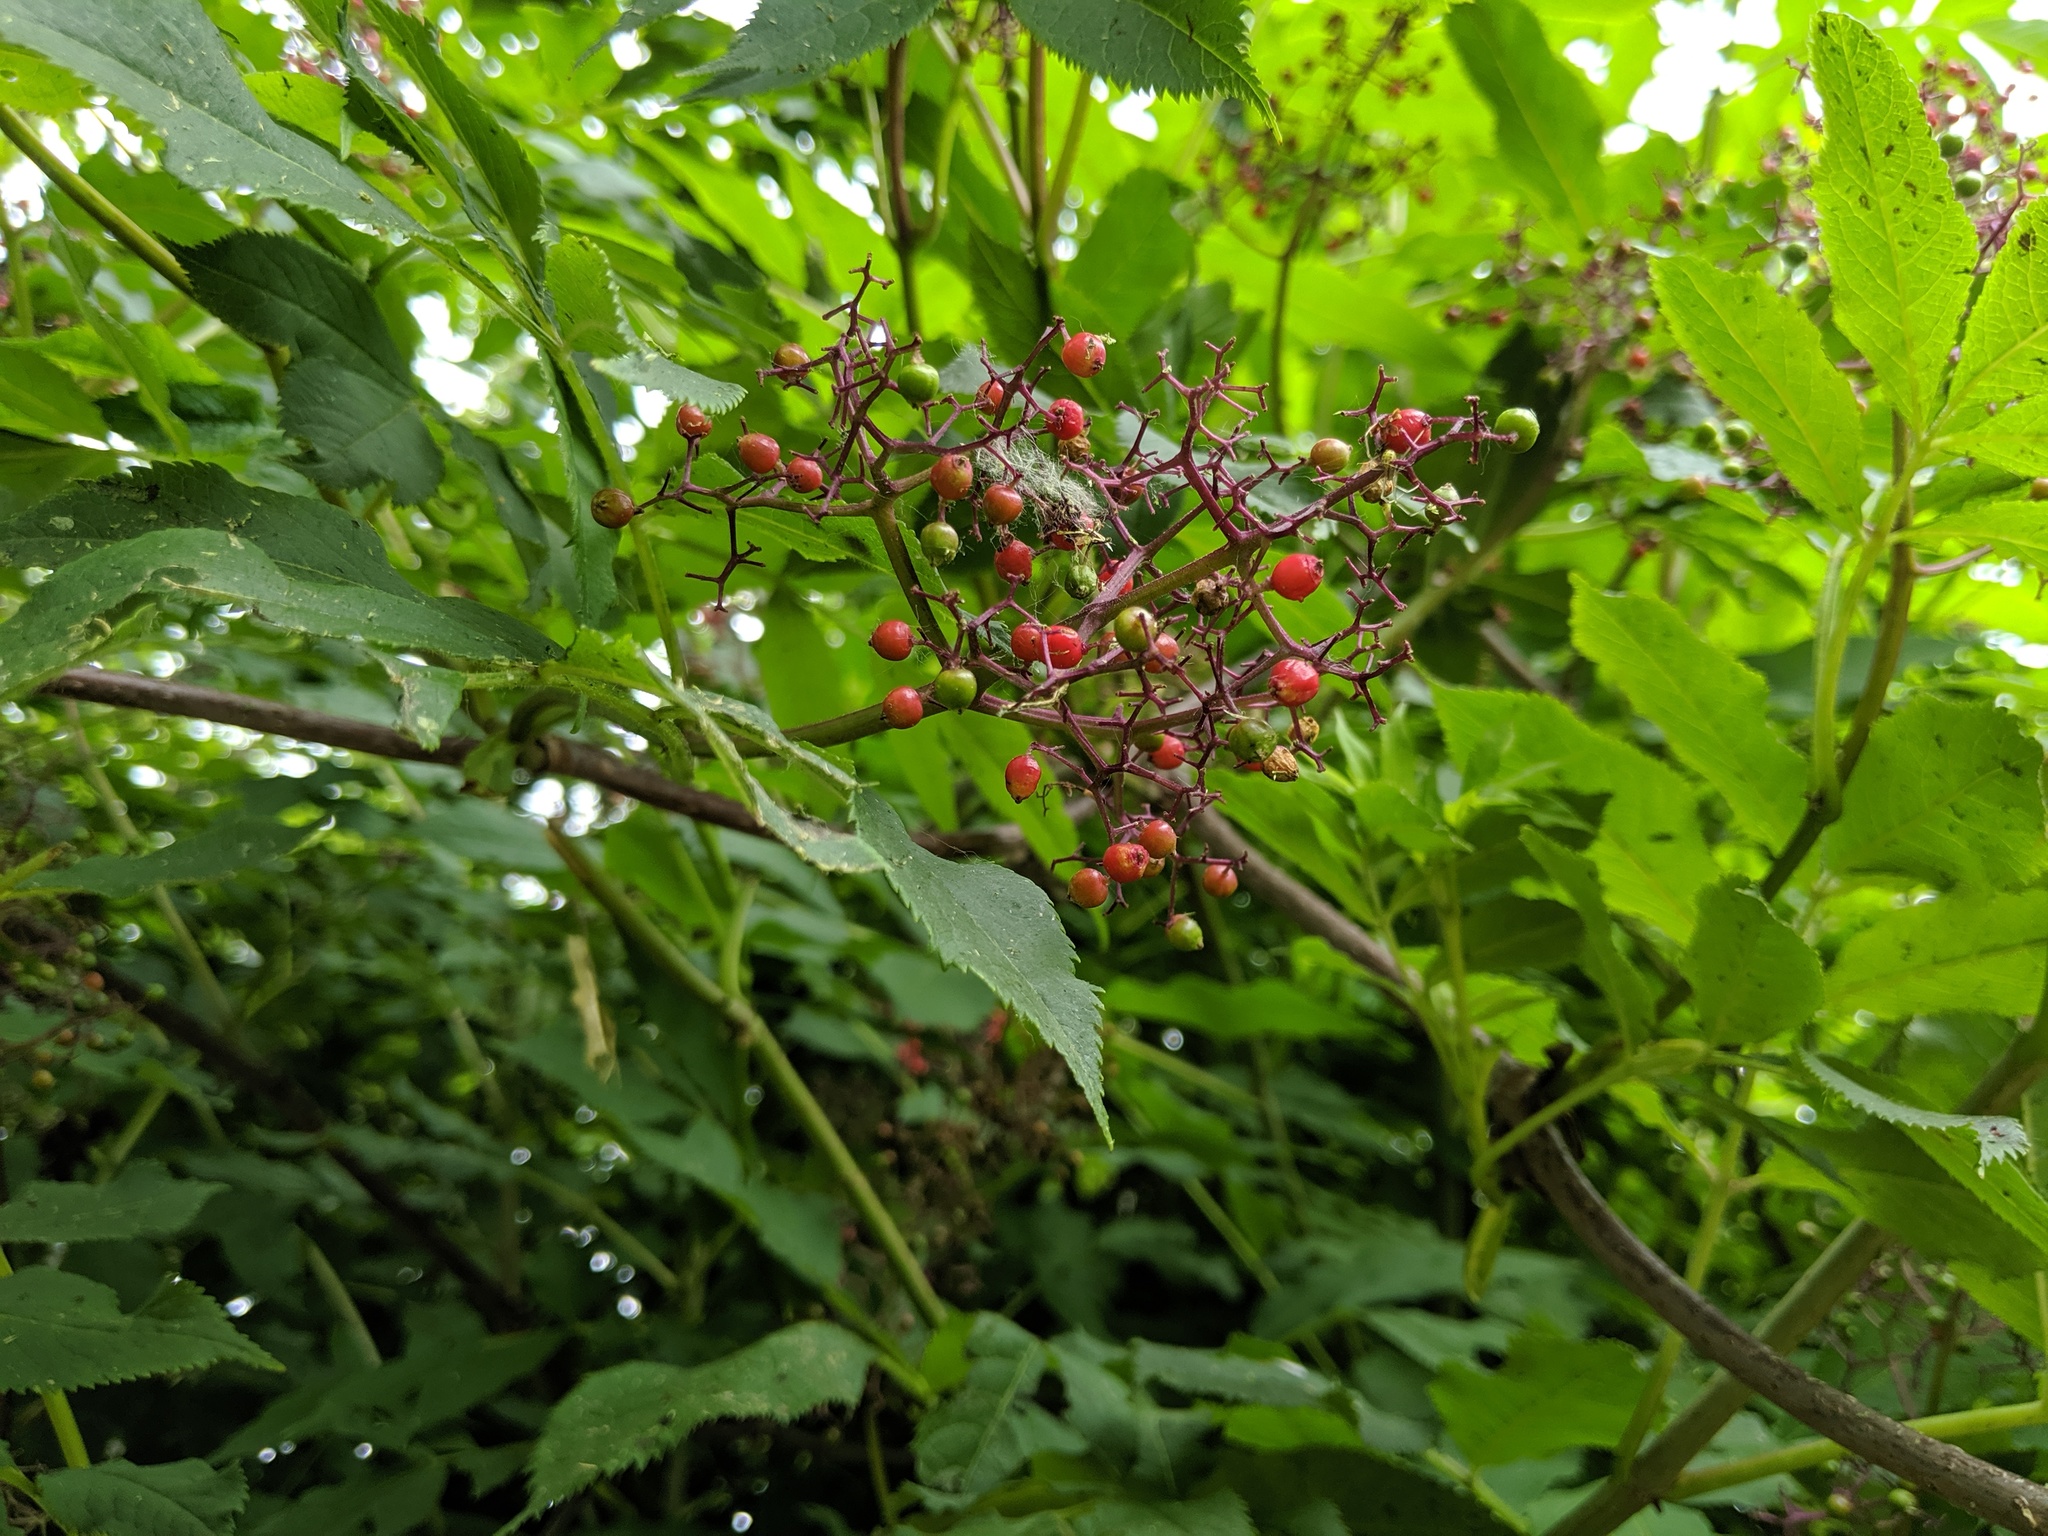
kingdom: Plantae
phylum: Tracheophyta
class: Magnoliopsida
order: Dipsacales
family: Viburnaceae
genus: Sambucus
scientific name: Sambucus racemosa
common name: Red-berried elder
